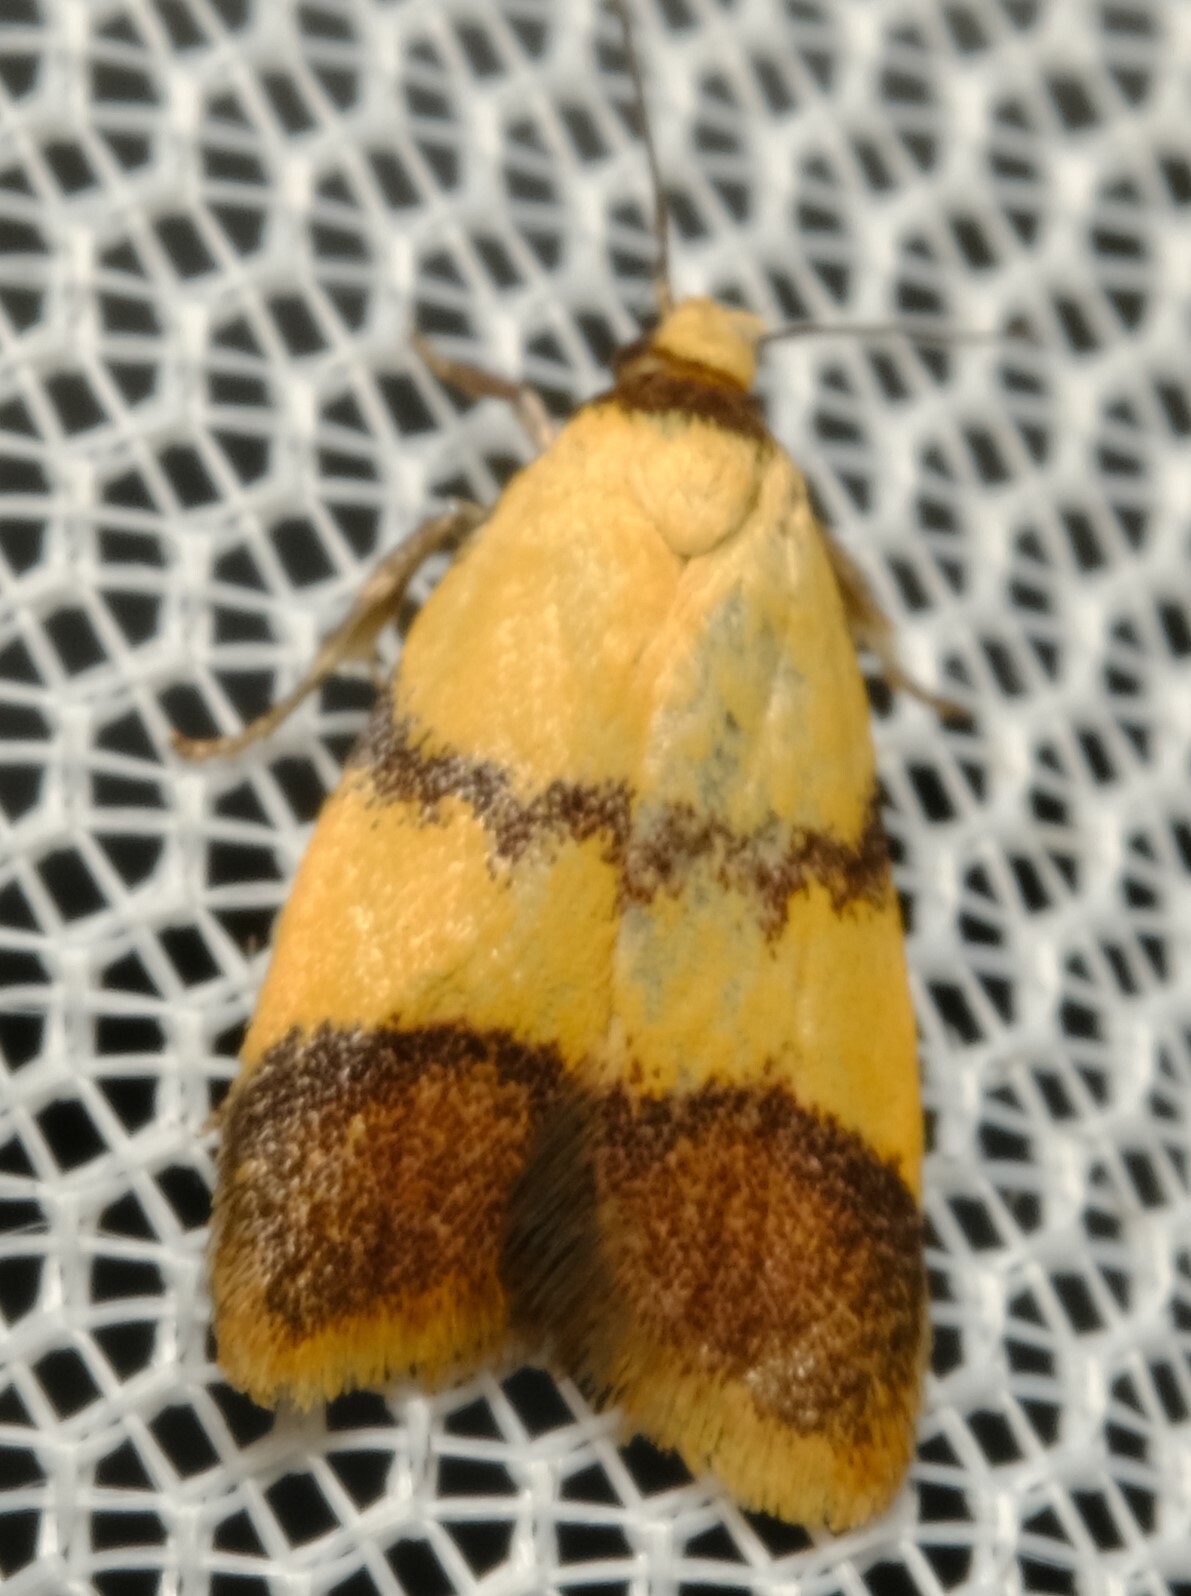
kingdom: Animalia
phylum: Arthropoda
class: Insecta
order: Lepidoptera
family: Oecophoridae
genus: Heteroteucha
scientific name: Heteroteucha translatella
